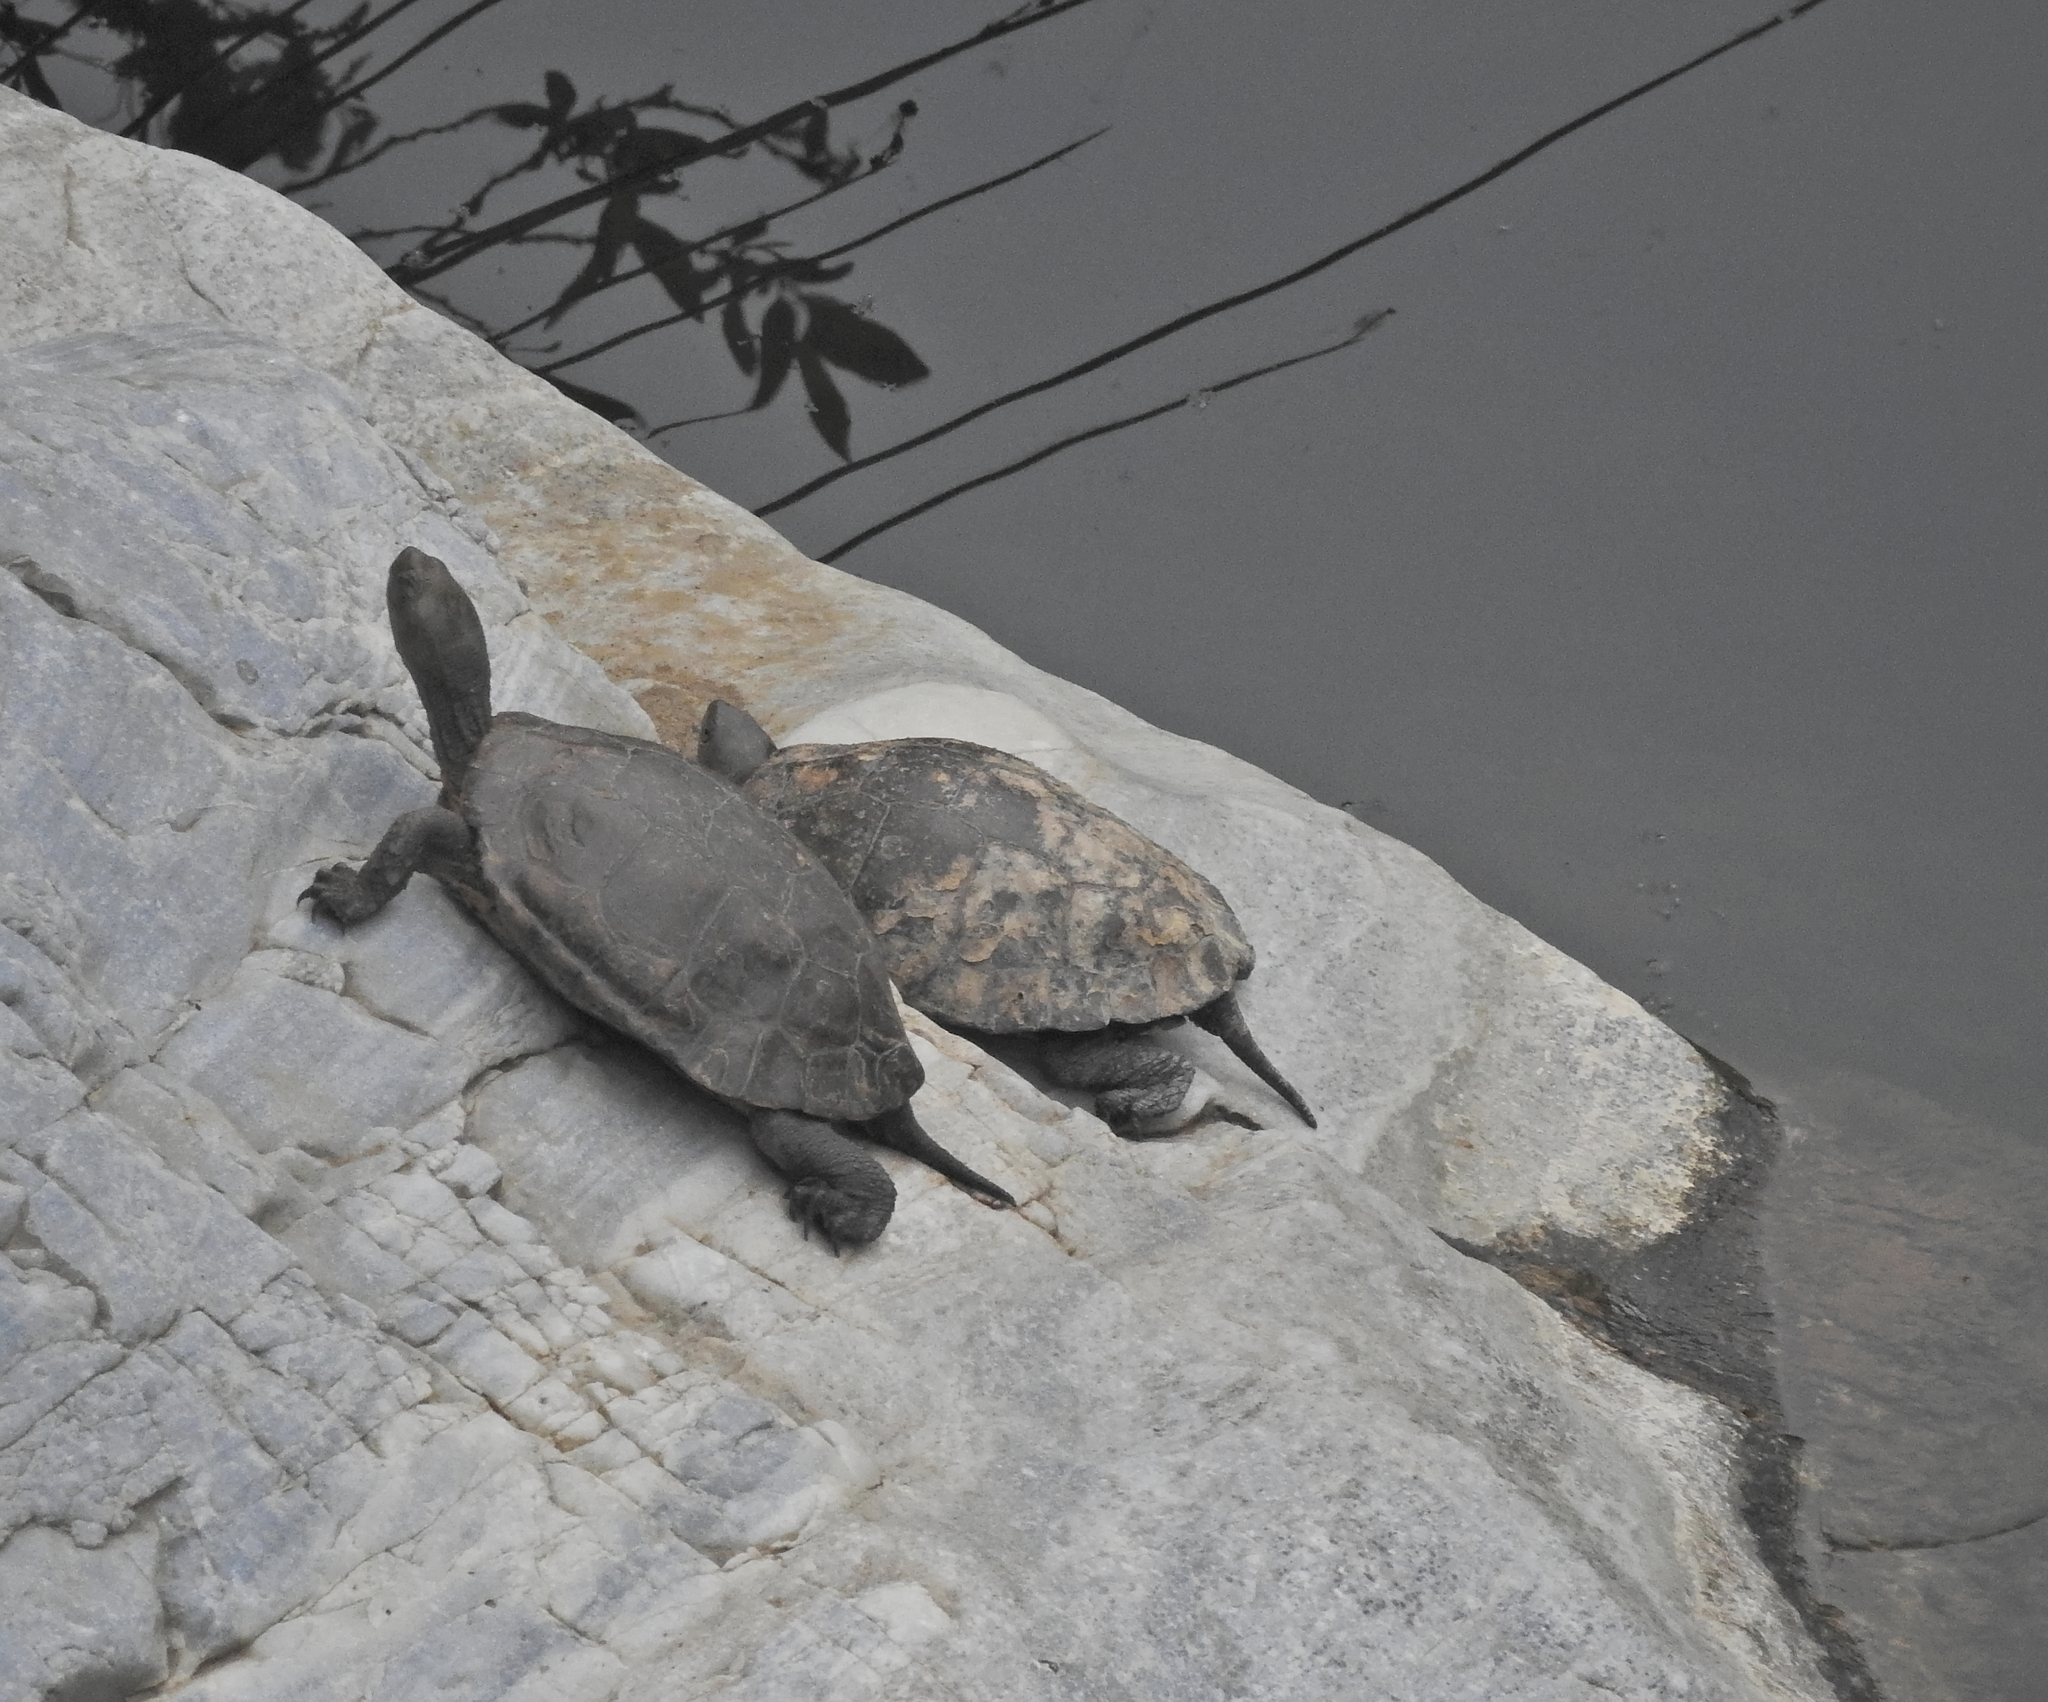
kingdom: Animalia
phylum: Chordata
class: Testudines
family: Geoemydidae
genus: Mauremys
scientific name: Mauremys leprosa
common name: Mediterranean pond turtle
